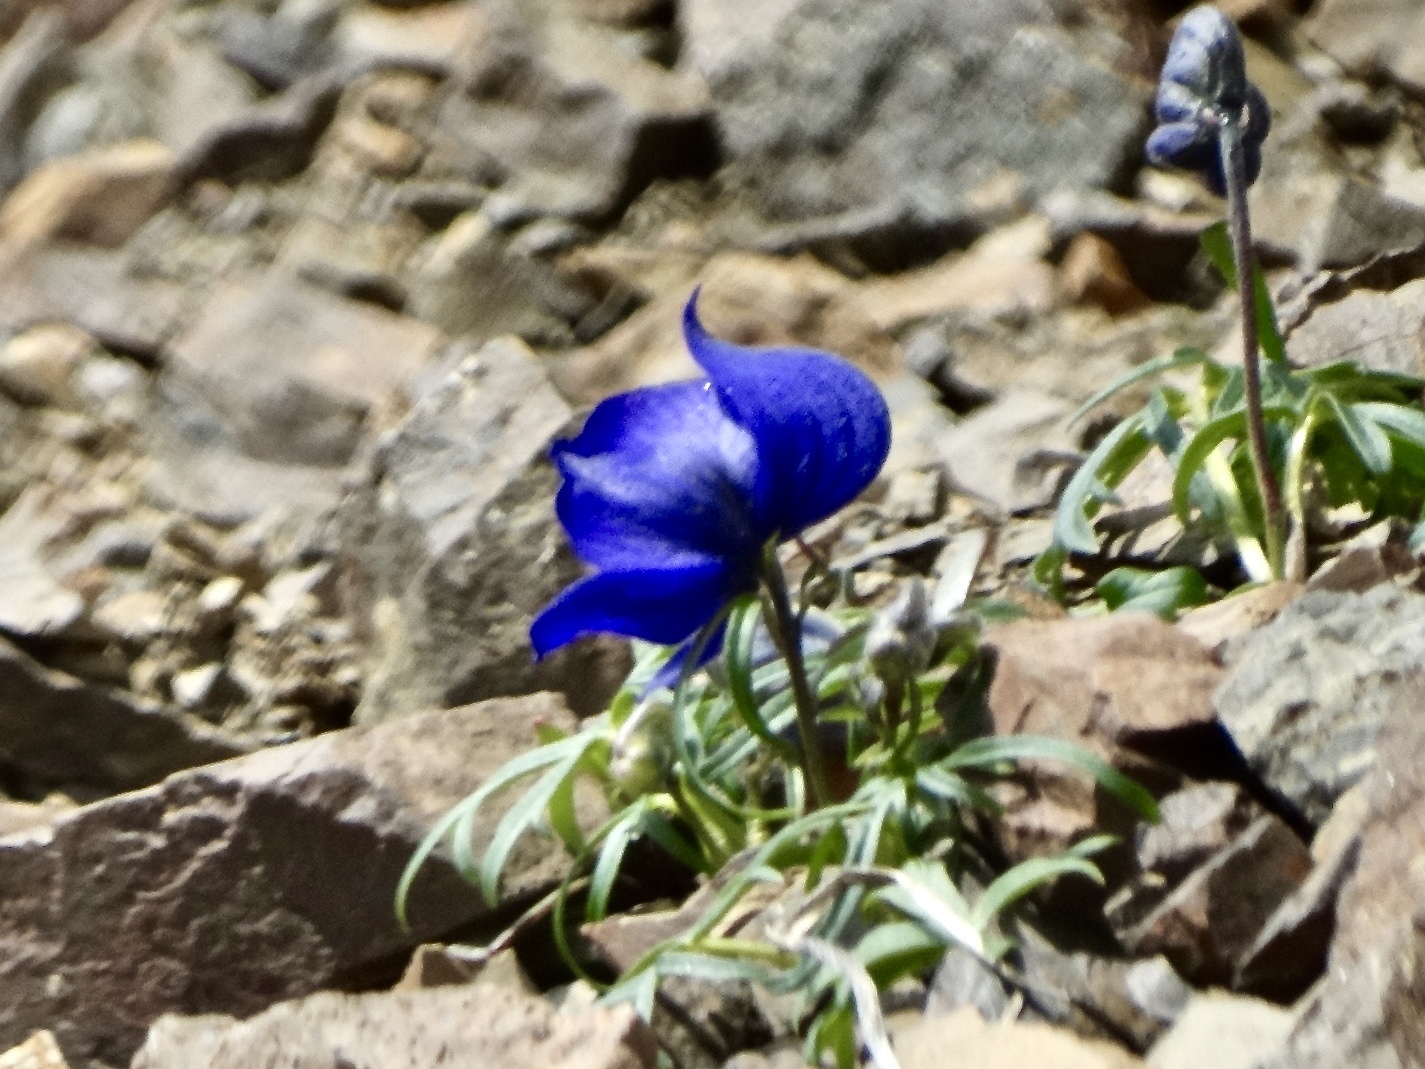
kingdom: Plantae
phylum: Tracheophyta
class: Magnoliopsida
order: Ranunculales
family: Ranunculaceae
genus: Aconitum
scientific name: Aconitum delphiniifolium
